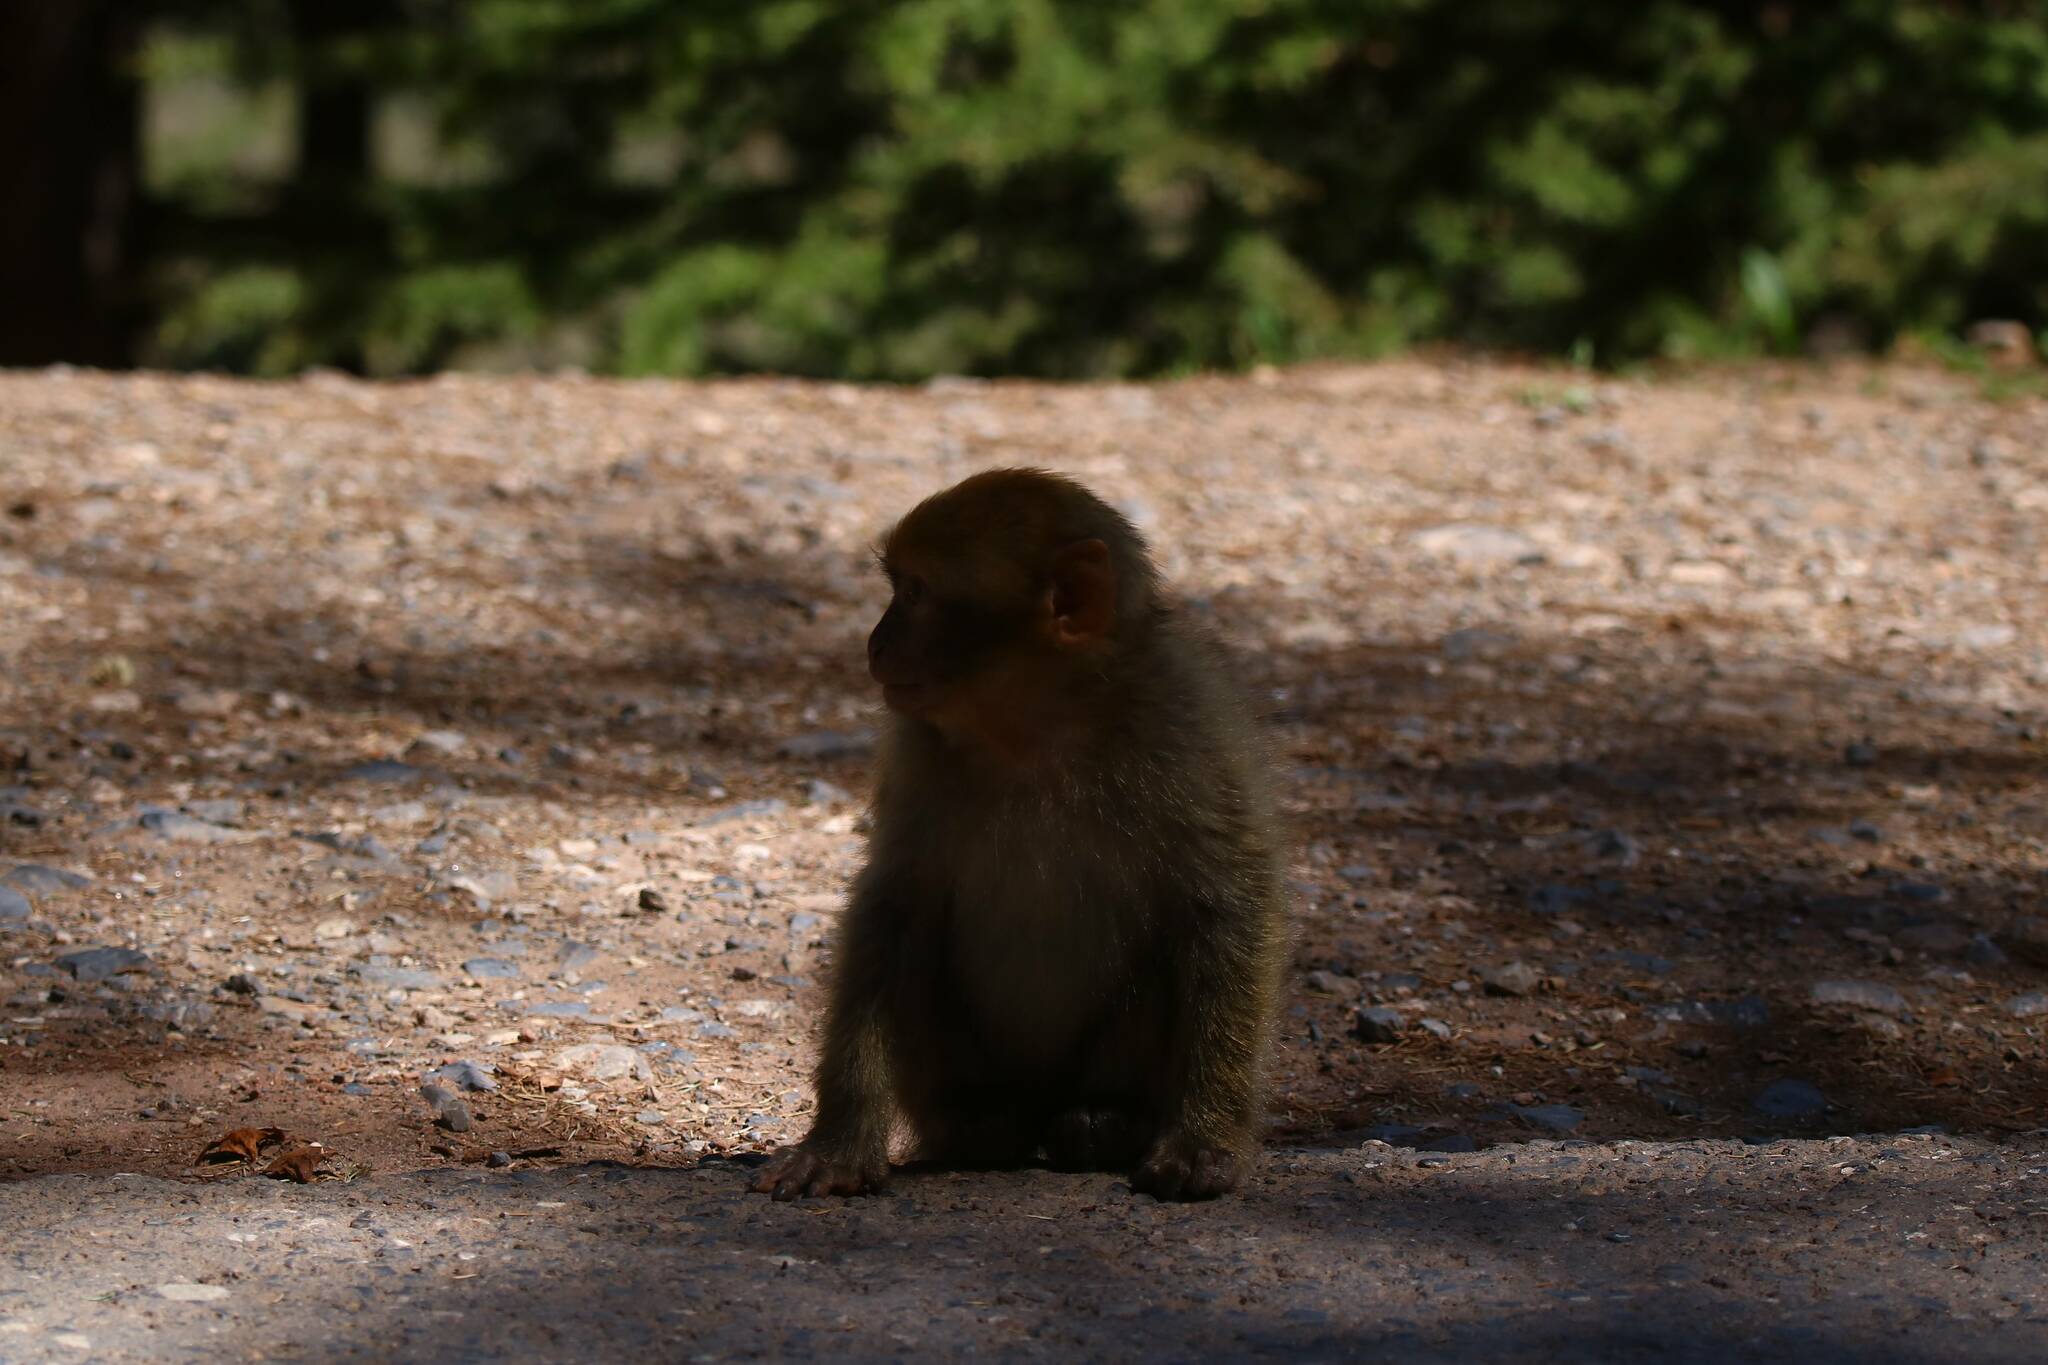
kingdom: Animalia
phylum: Chordata
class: Mammalia
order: Primates
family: Cercopithecidae
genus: Macaca
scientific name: Macaca sylvanus
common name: Barbary macaque
